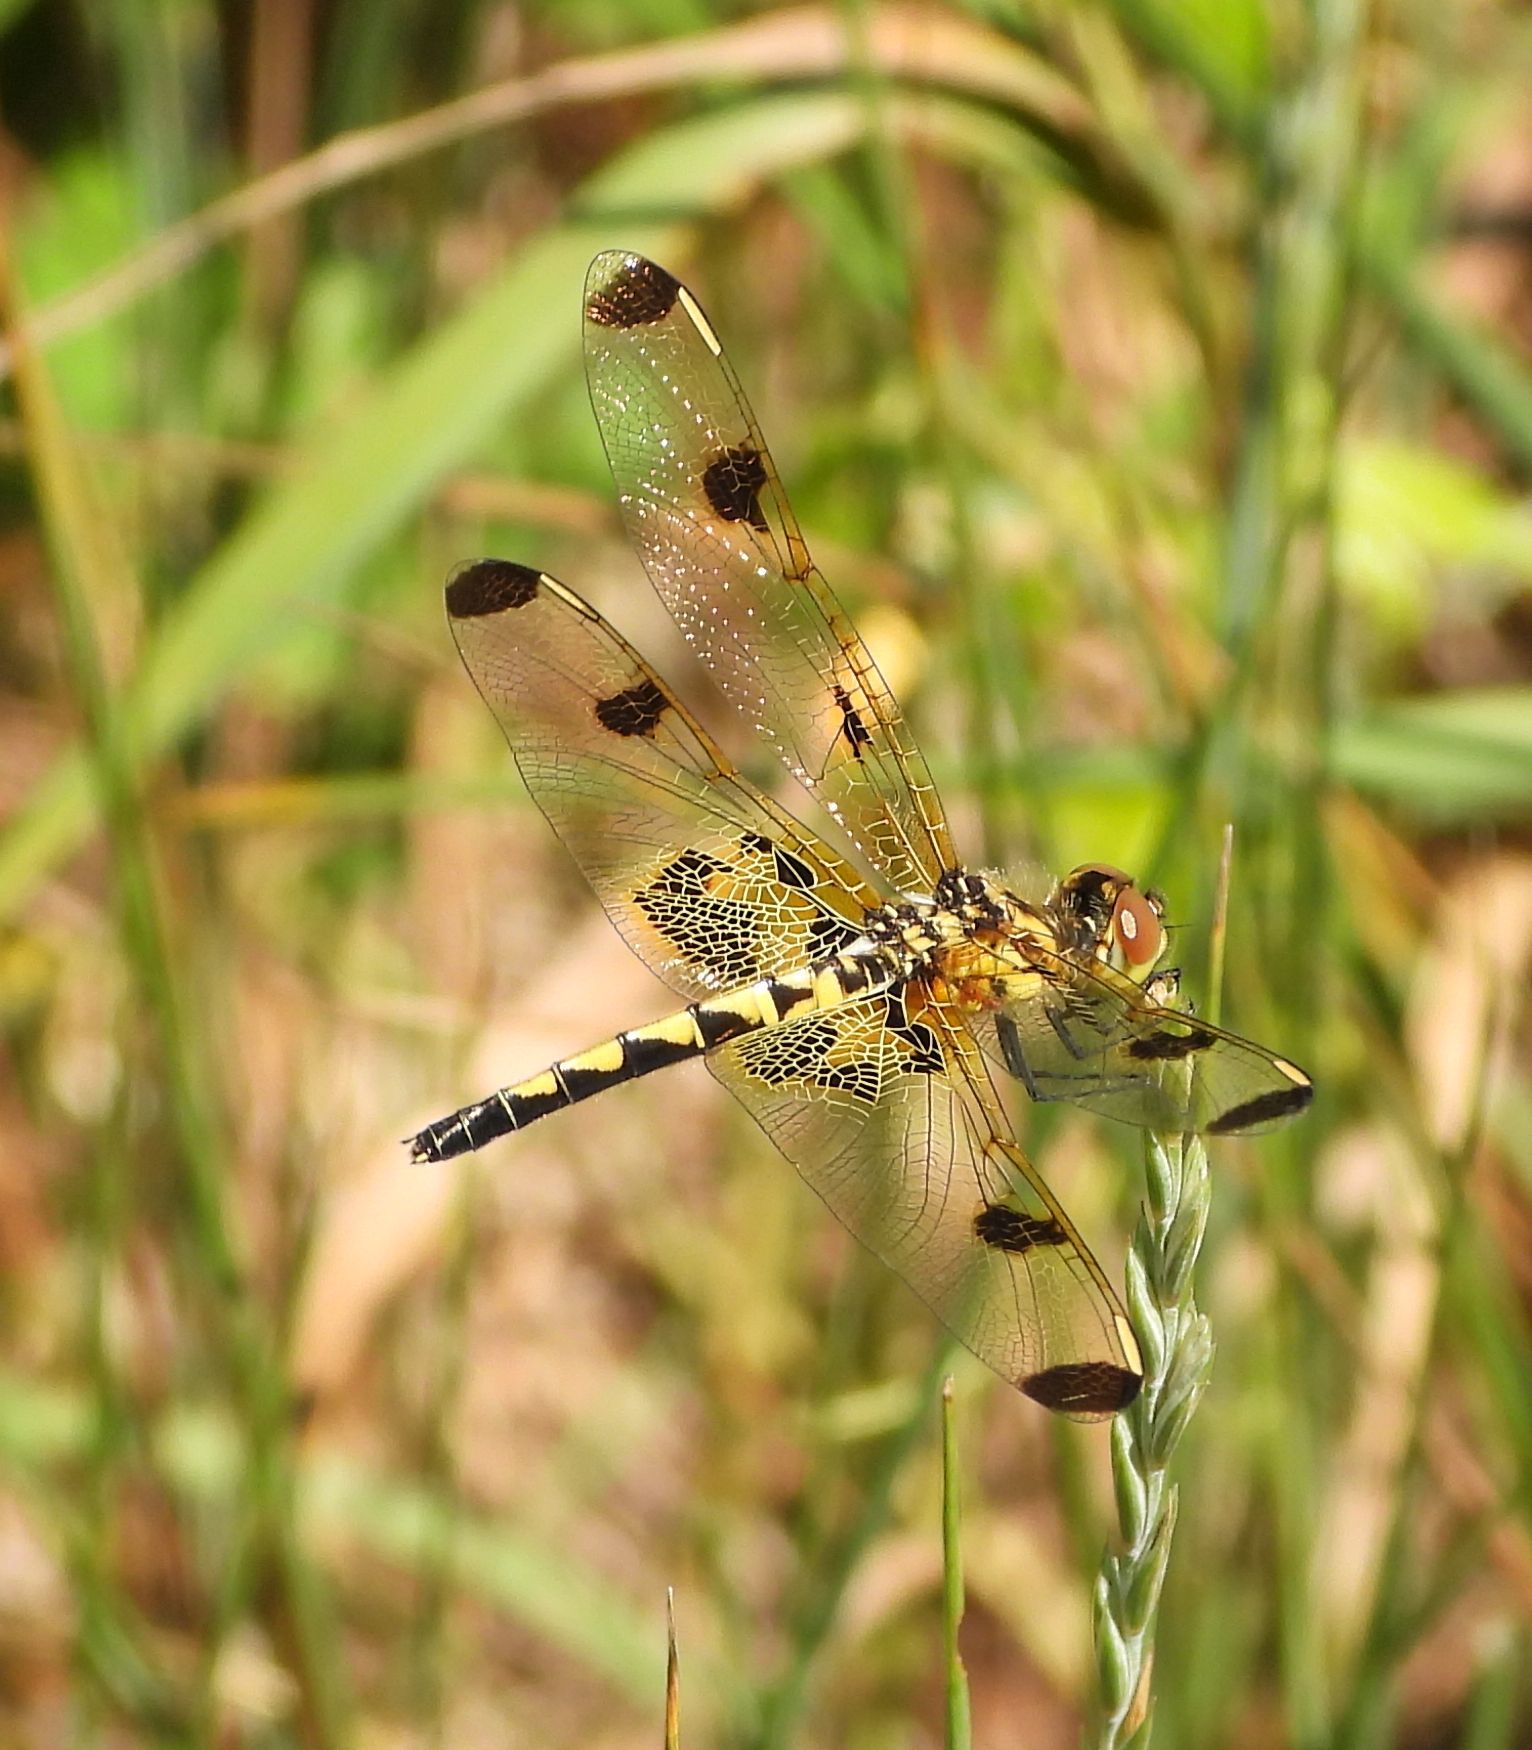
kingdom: Animalia
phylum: Arthropoda
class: Insecta
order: Odonata
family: Libellulidae
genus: Celithemis
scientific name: Celithemis elisa
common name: Calico pennant
